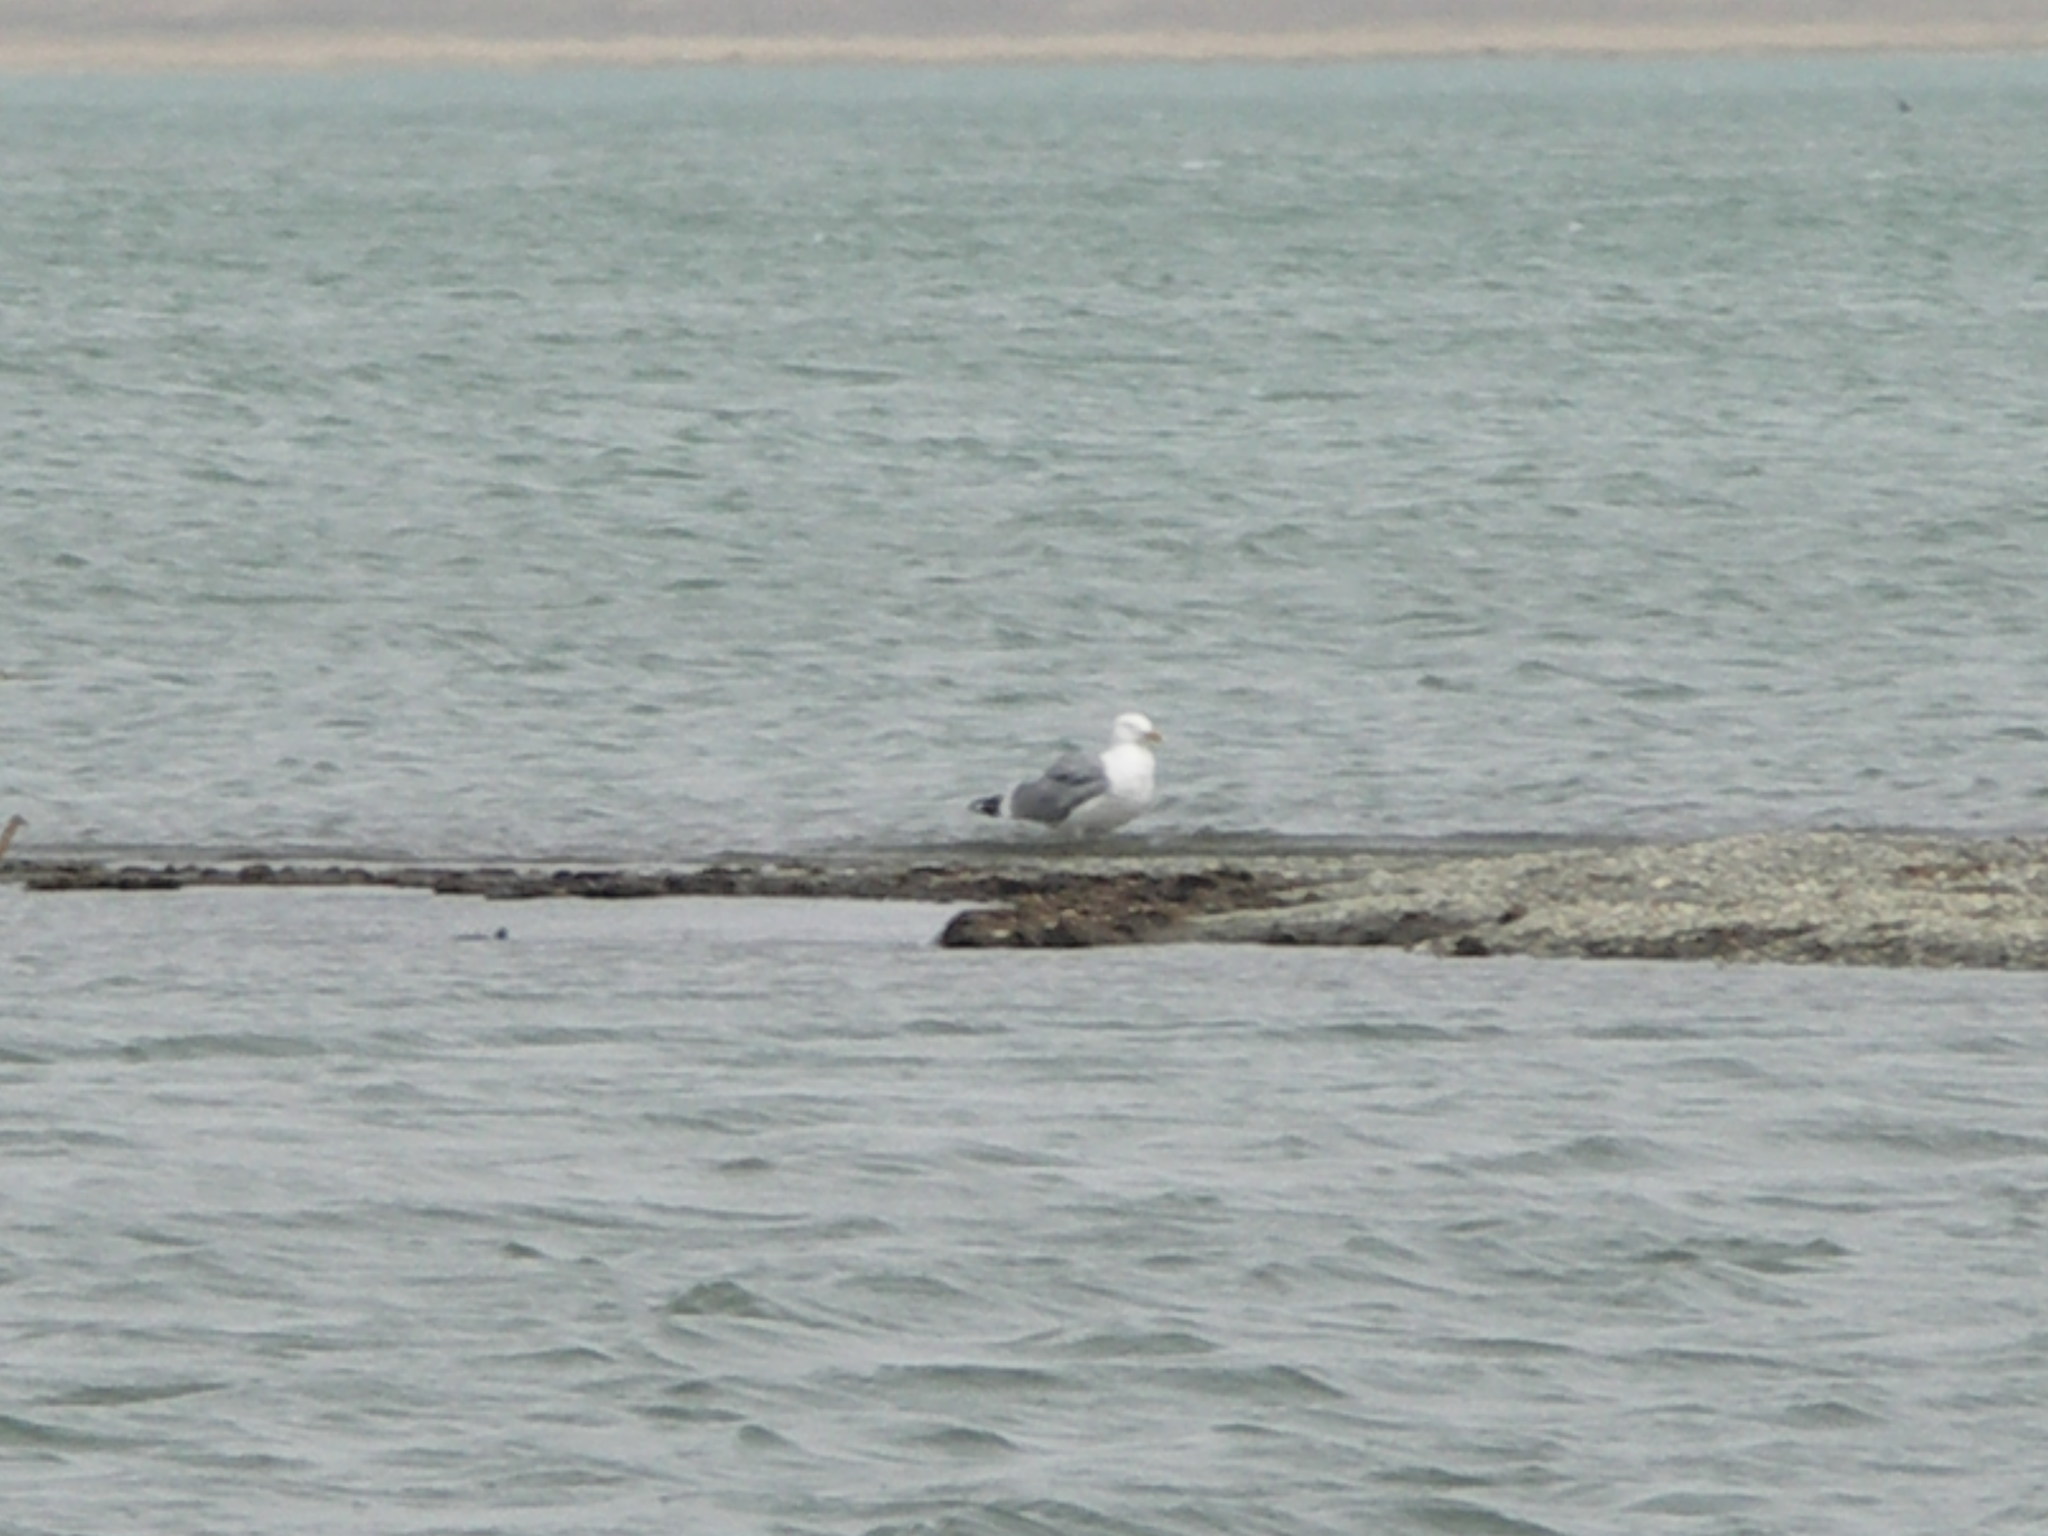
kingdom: Animalia
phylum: Chordata
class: Aves
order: Charadriiformes
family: Laridae
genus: Larus
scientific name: Larus vegae
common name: Vega gull
